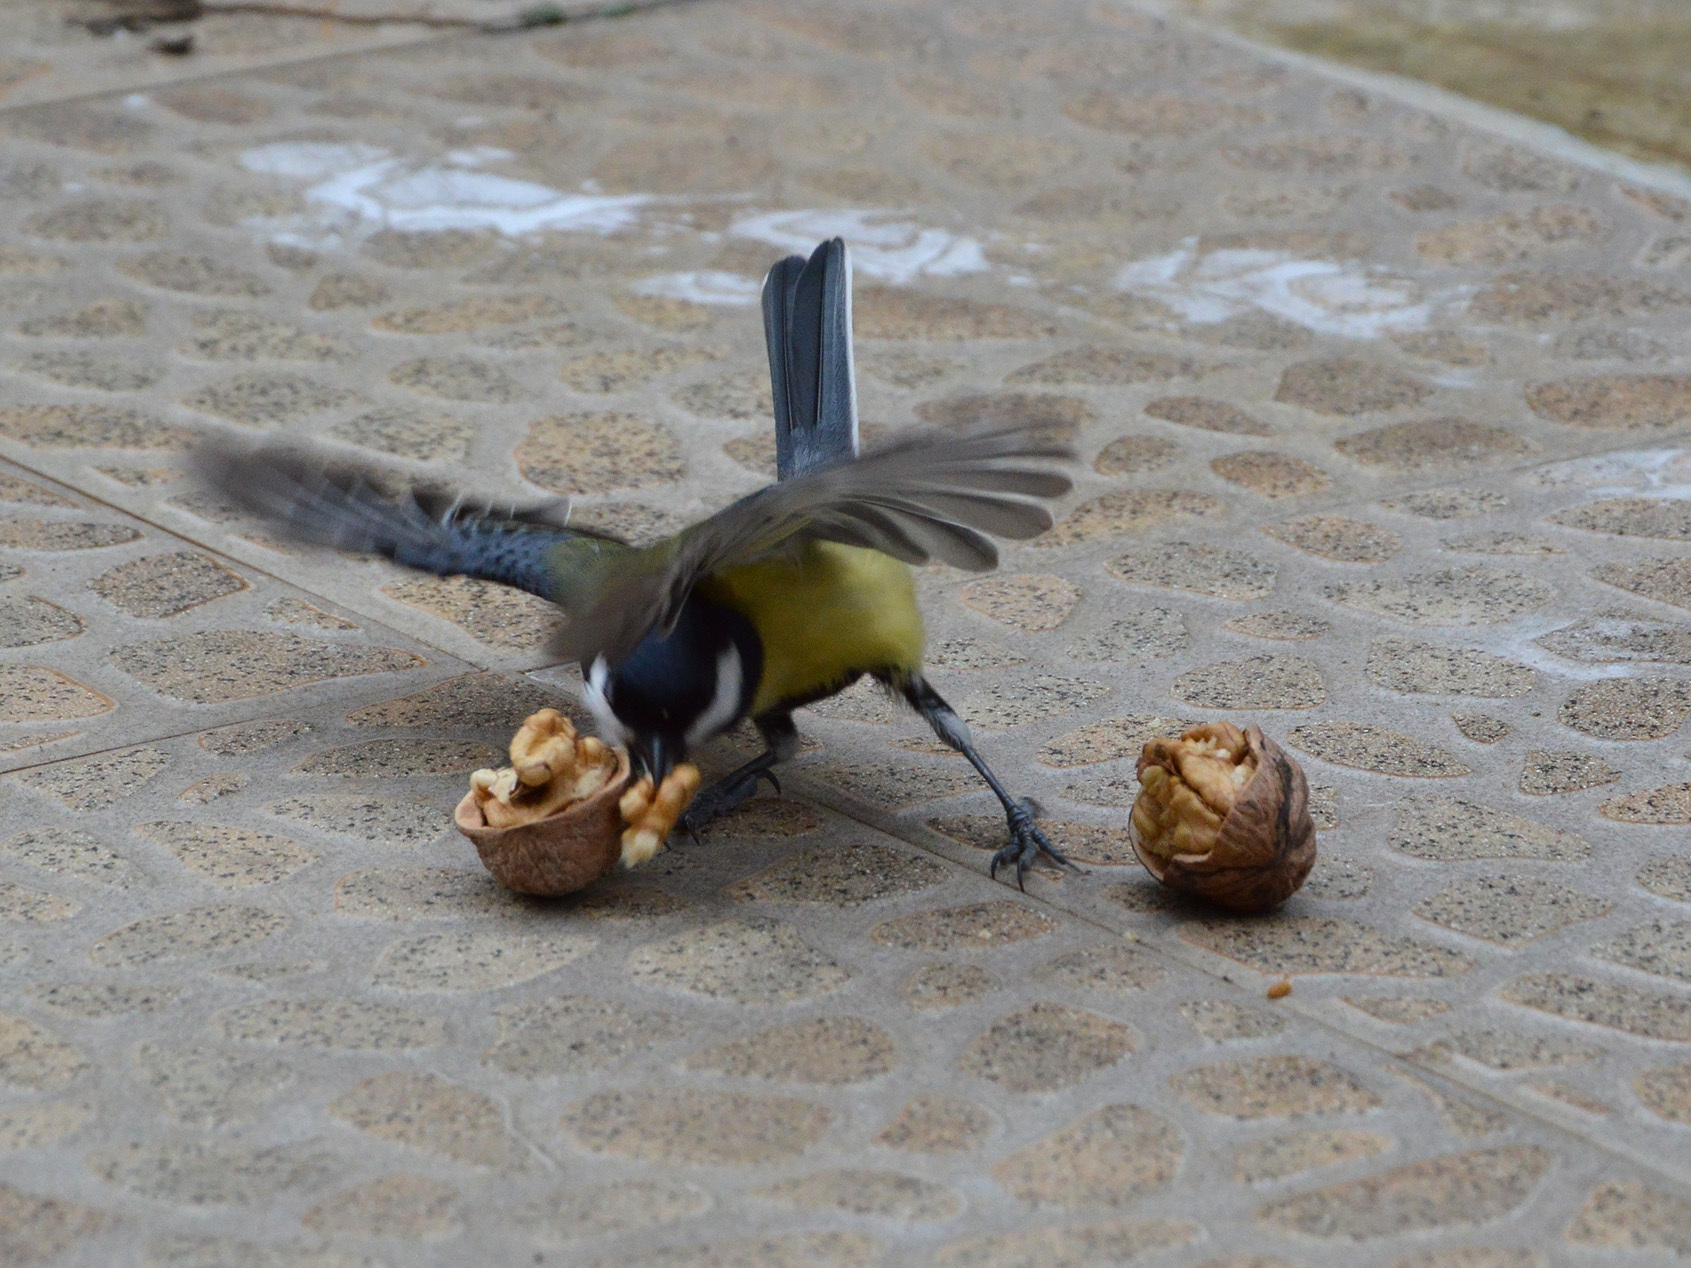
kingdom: Animalia
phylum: Chordata
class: Aves
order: Passeriformes
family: Paridae
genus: Parus
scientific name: Parus major
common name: Great tit
